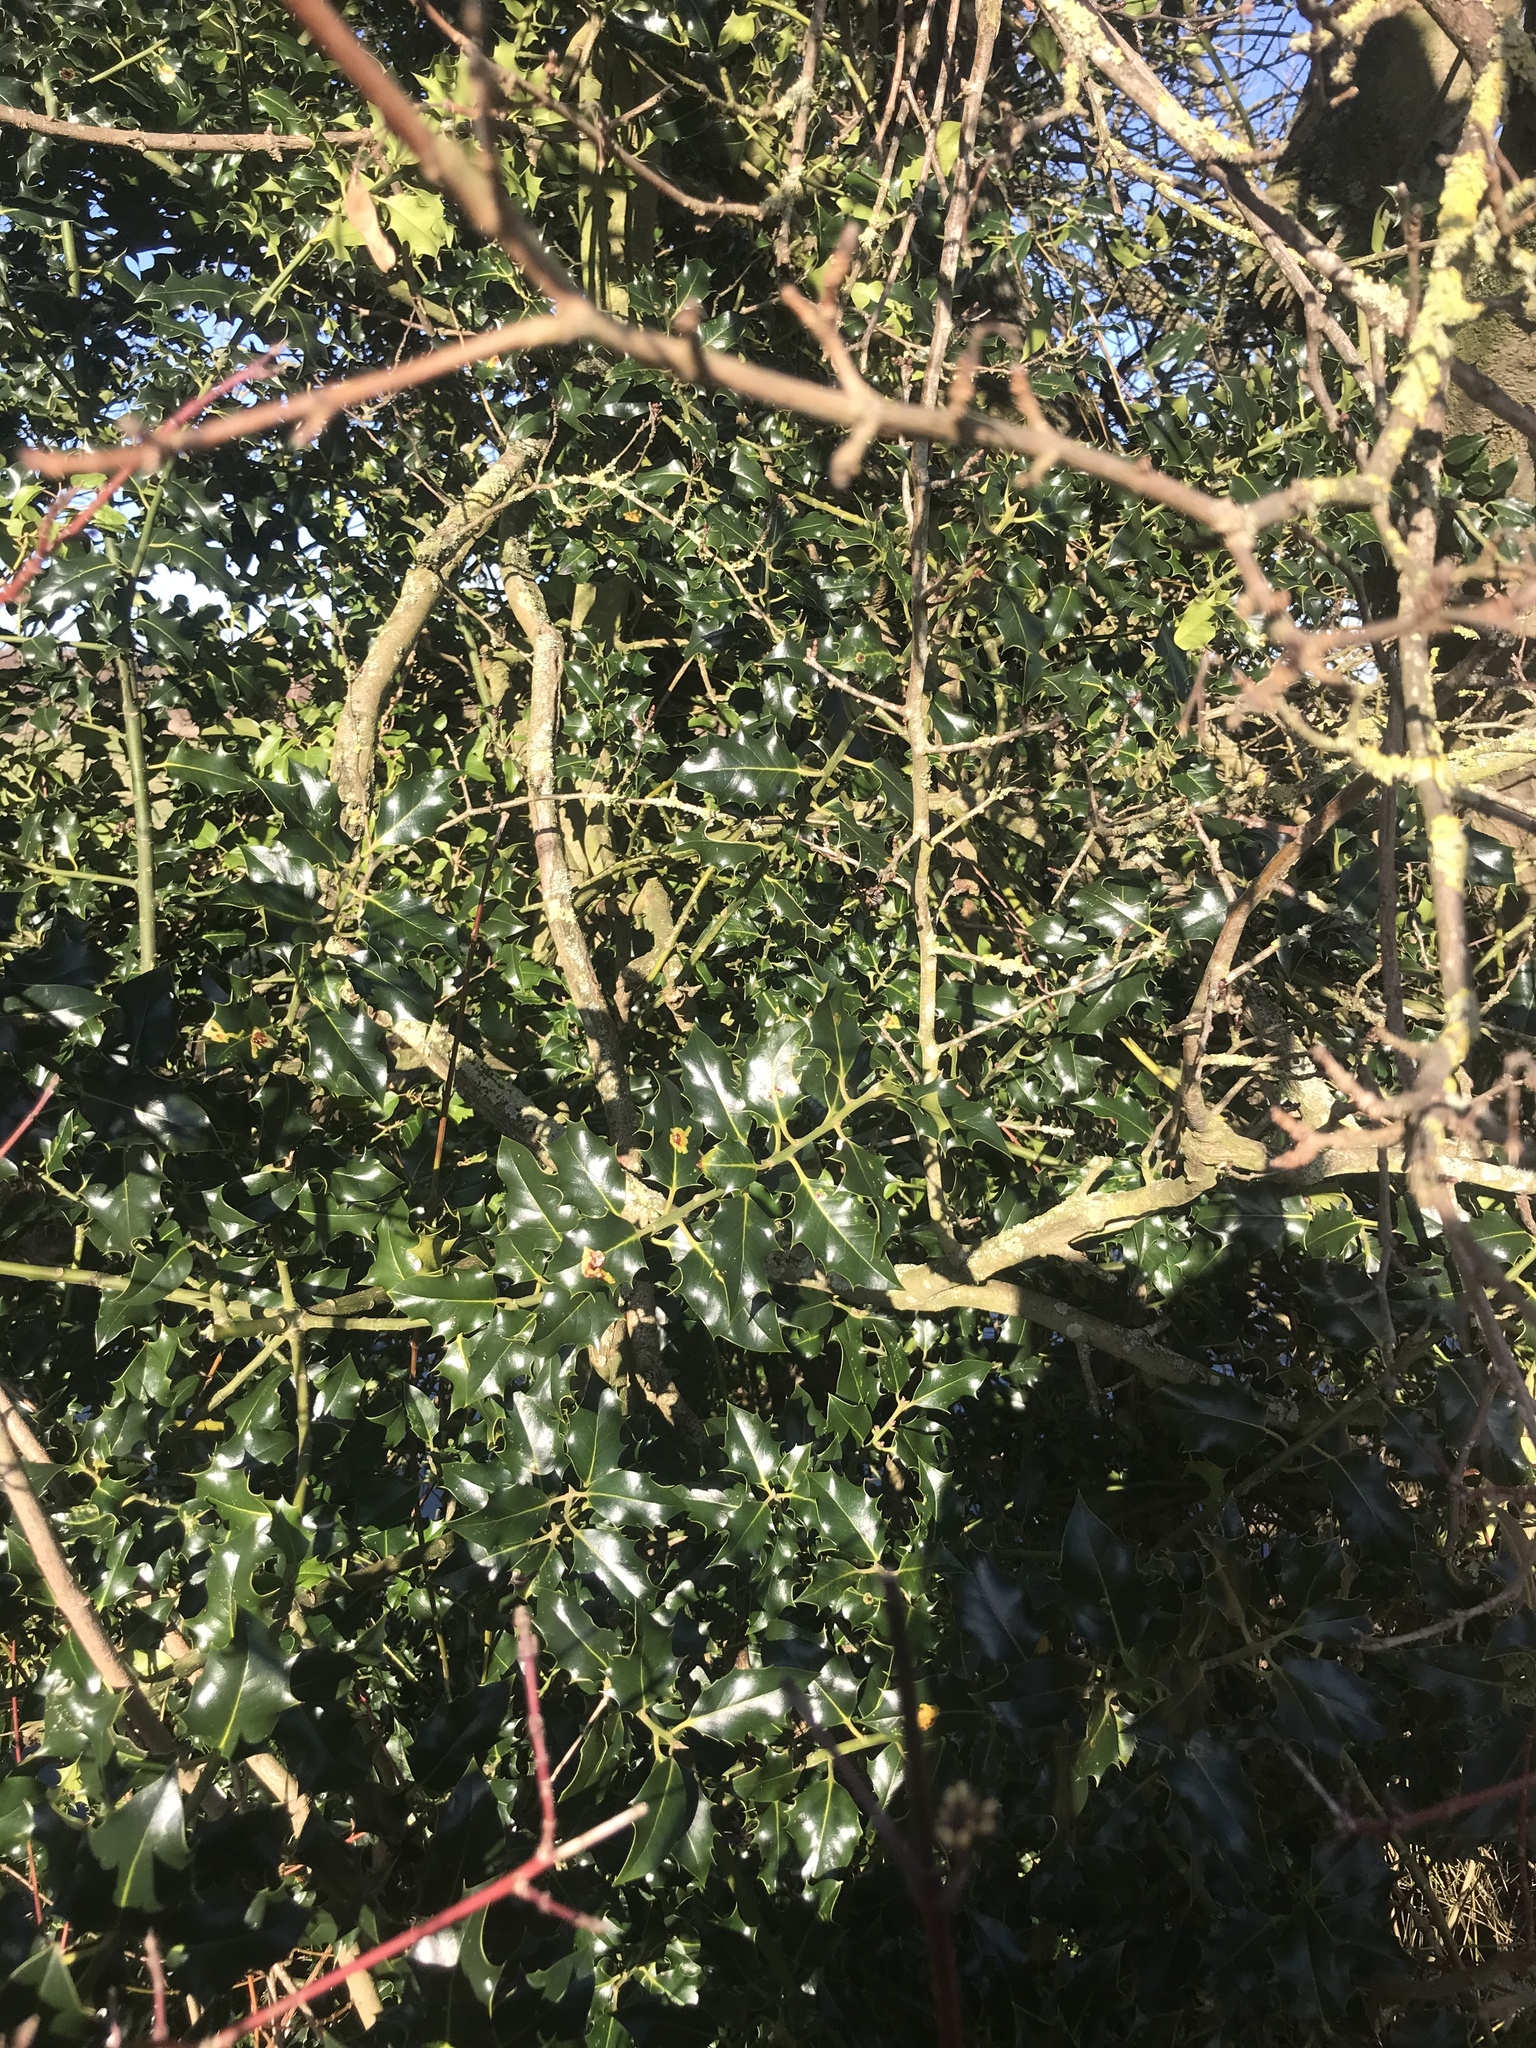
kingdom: Plantae
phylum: Tracheophyta
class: Magnoliopsida
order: Aquifoliales
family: Aquifoliaceae
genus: Ilex
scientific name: Ilex aquifolium
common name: English holly
